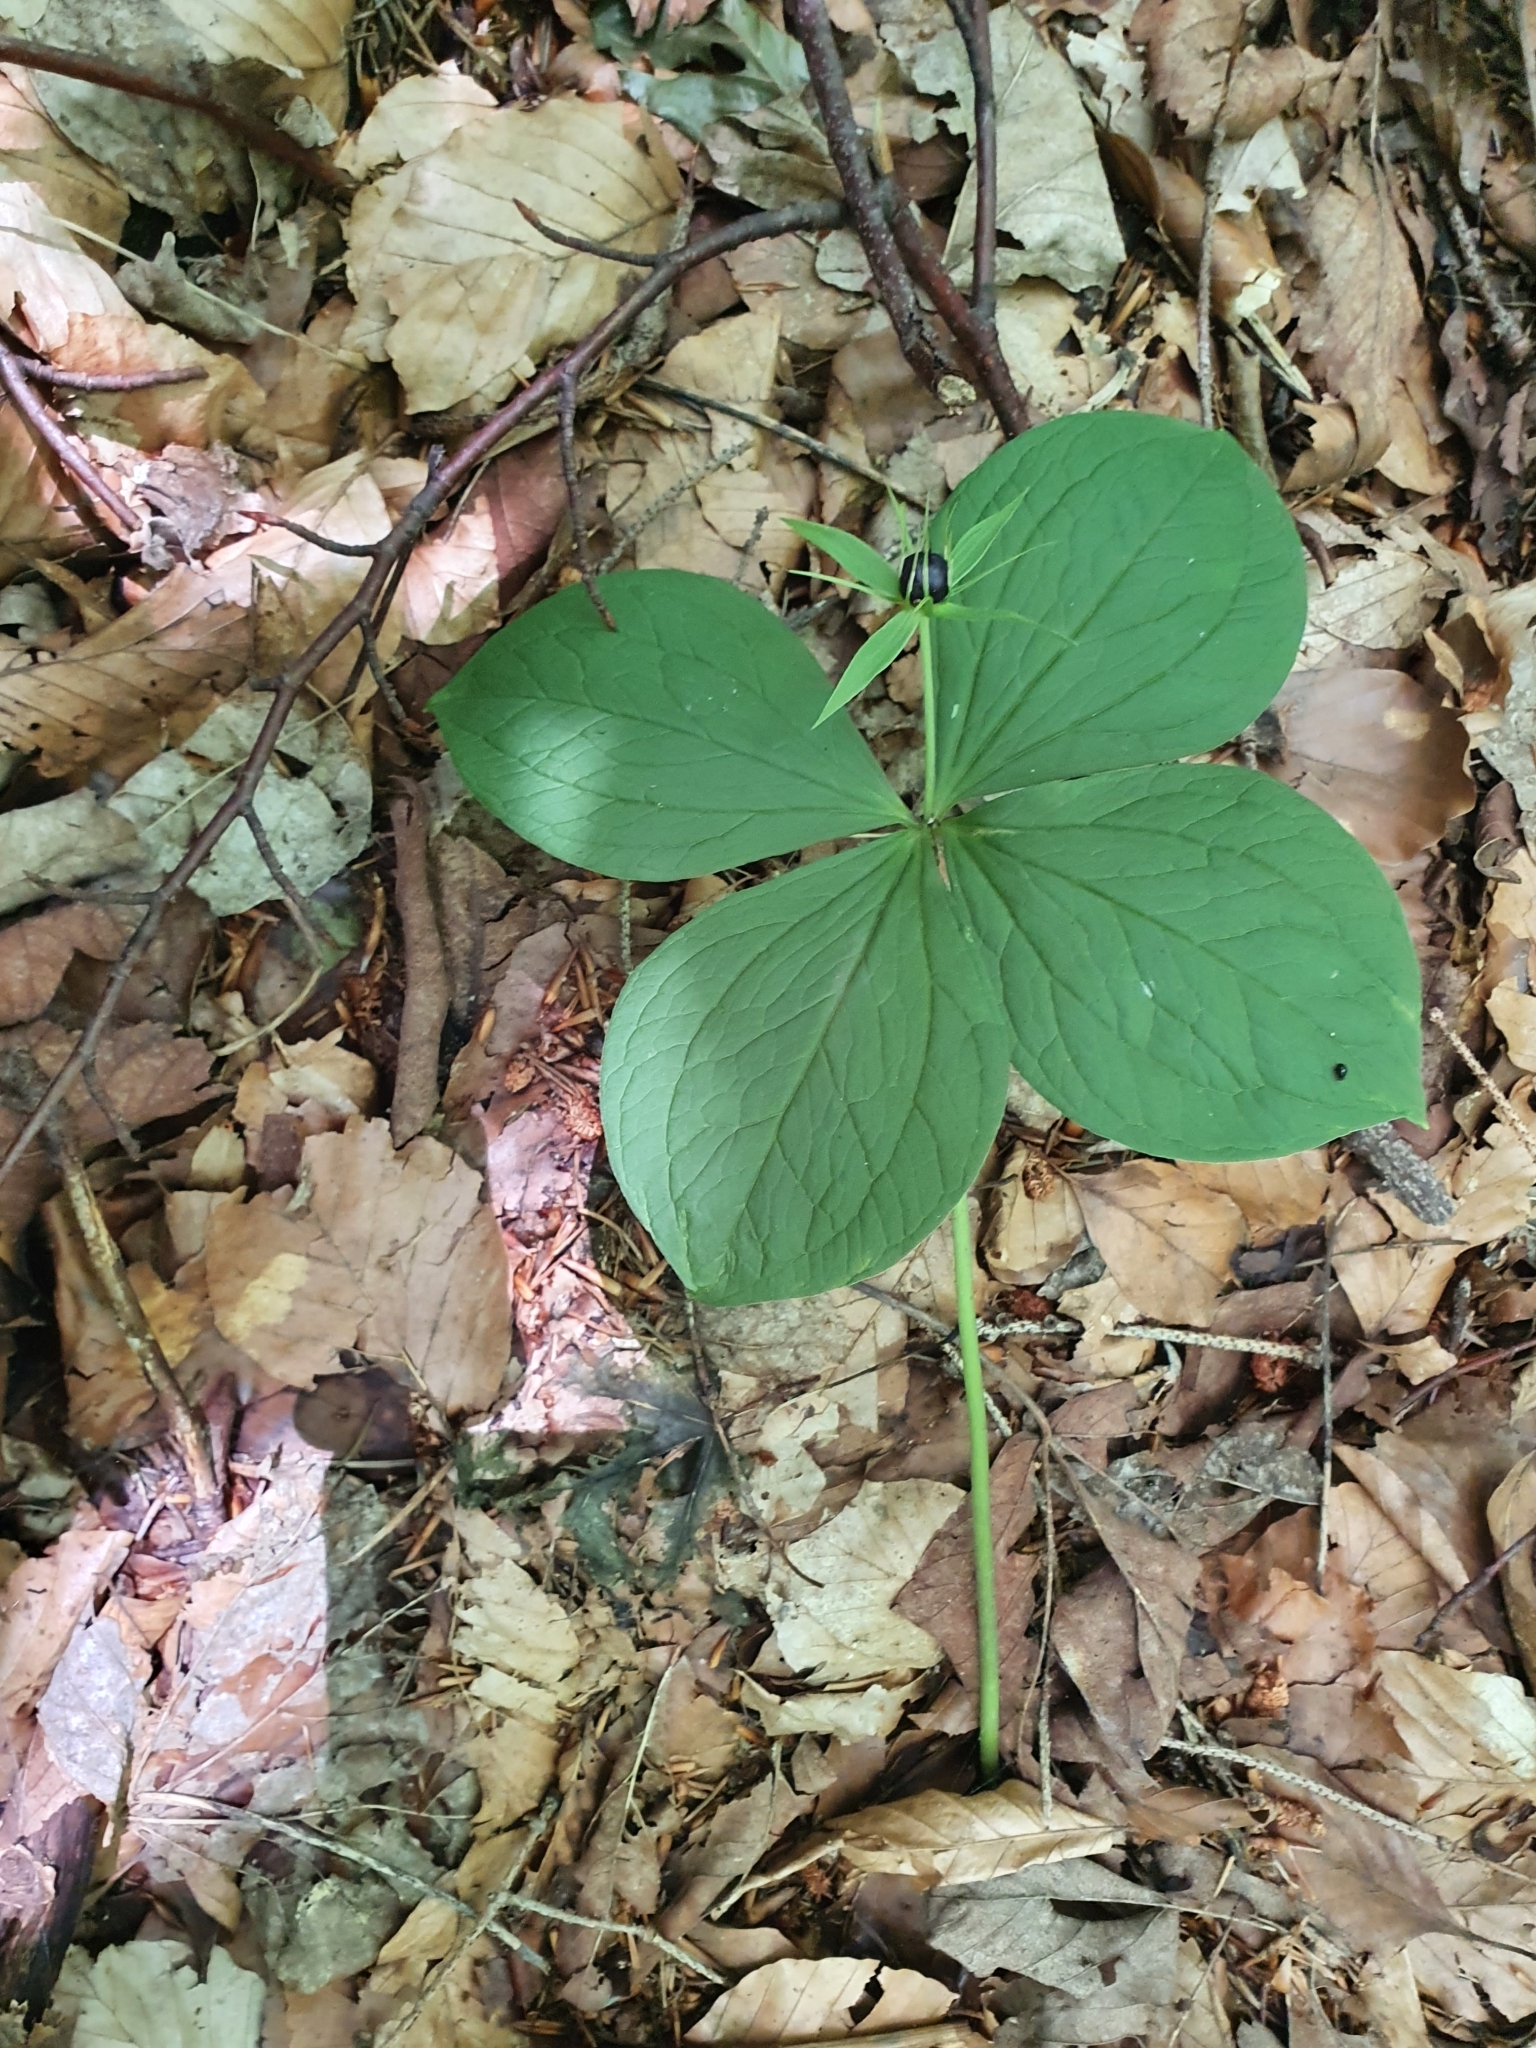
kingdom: Plantae
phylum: Tracheophyta
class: Liliopsida
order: Liliales
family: Melanthiaceae
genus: Paris
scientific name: Paris quadrifolia
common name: Herb-paris
